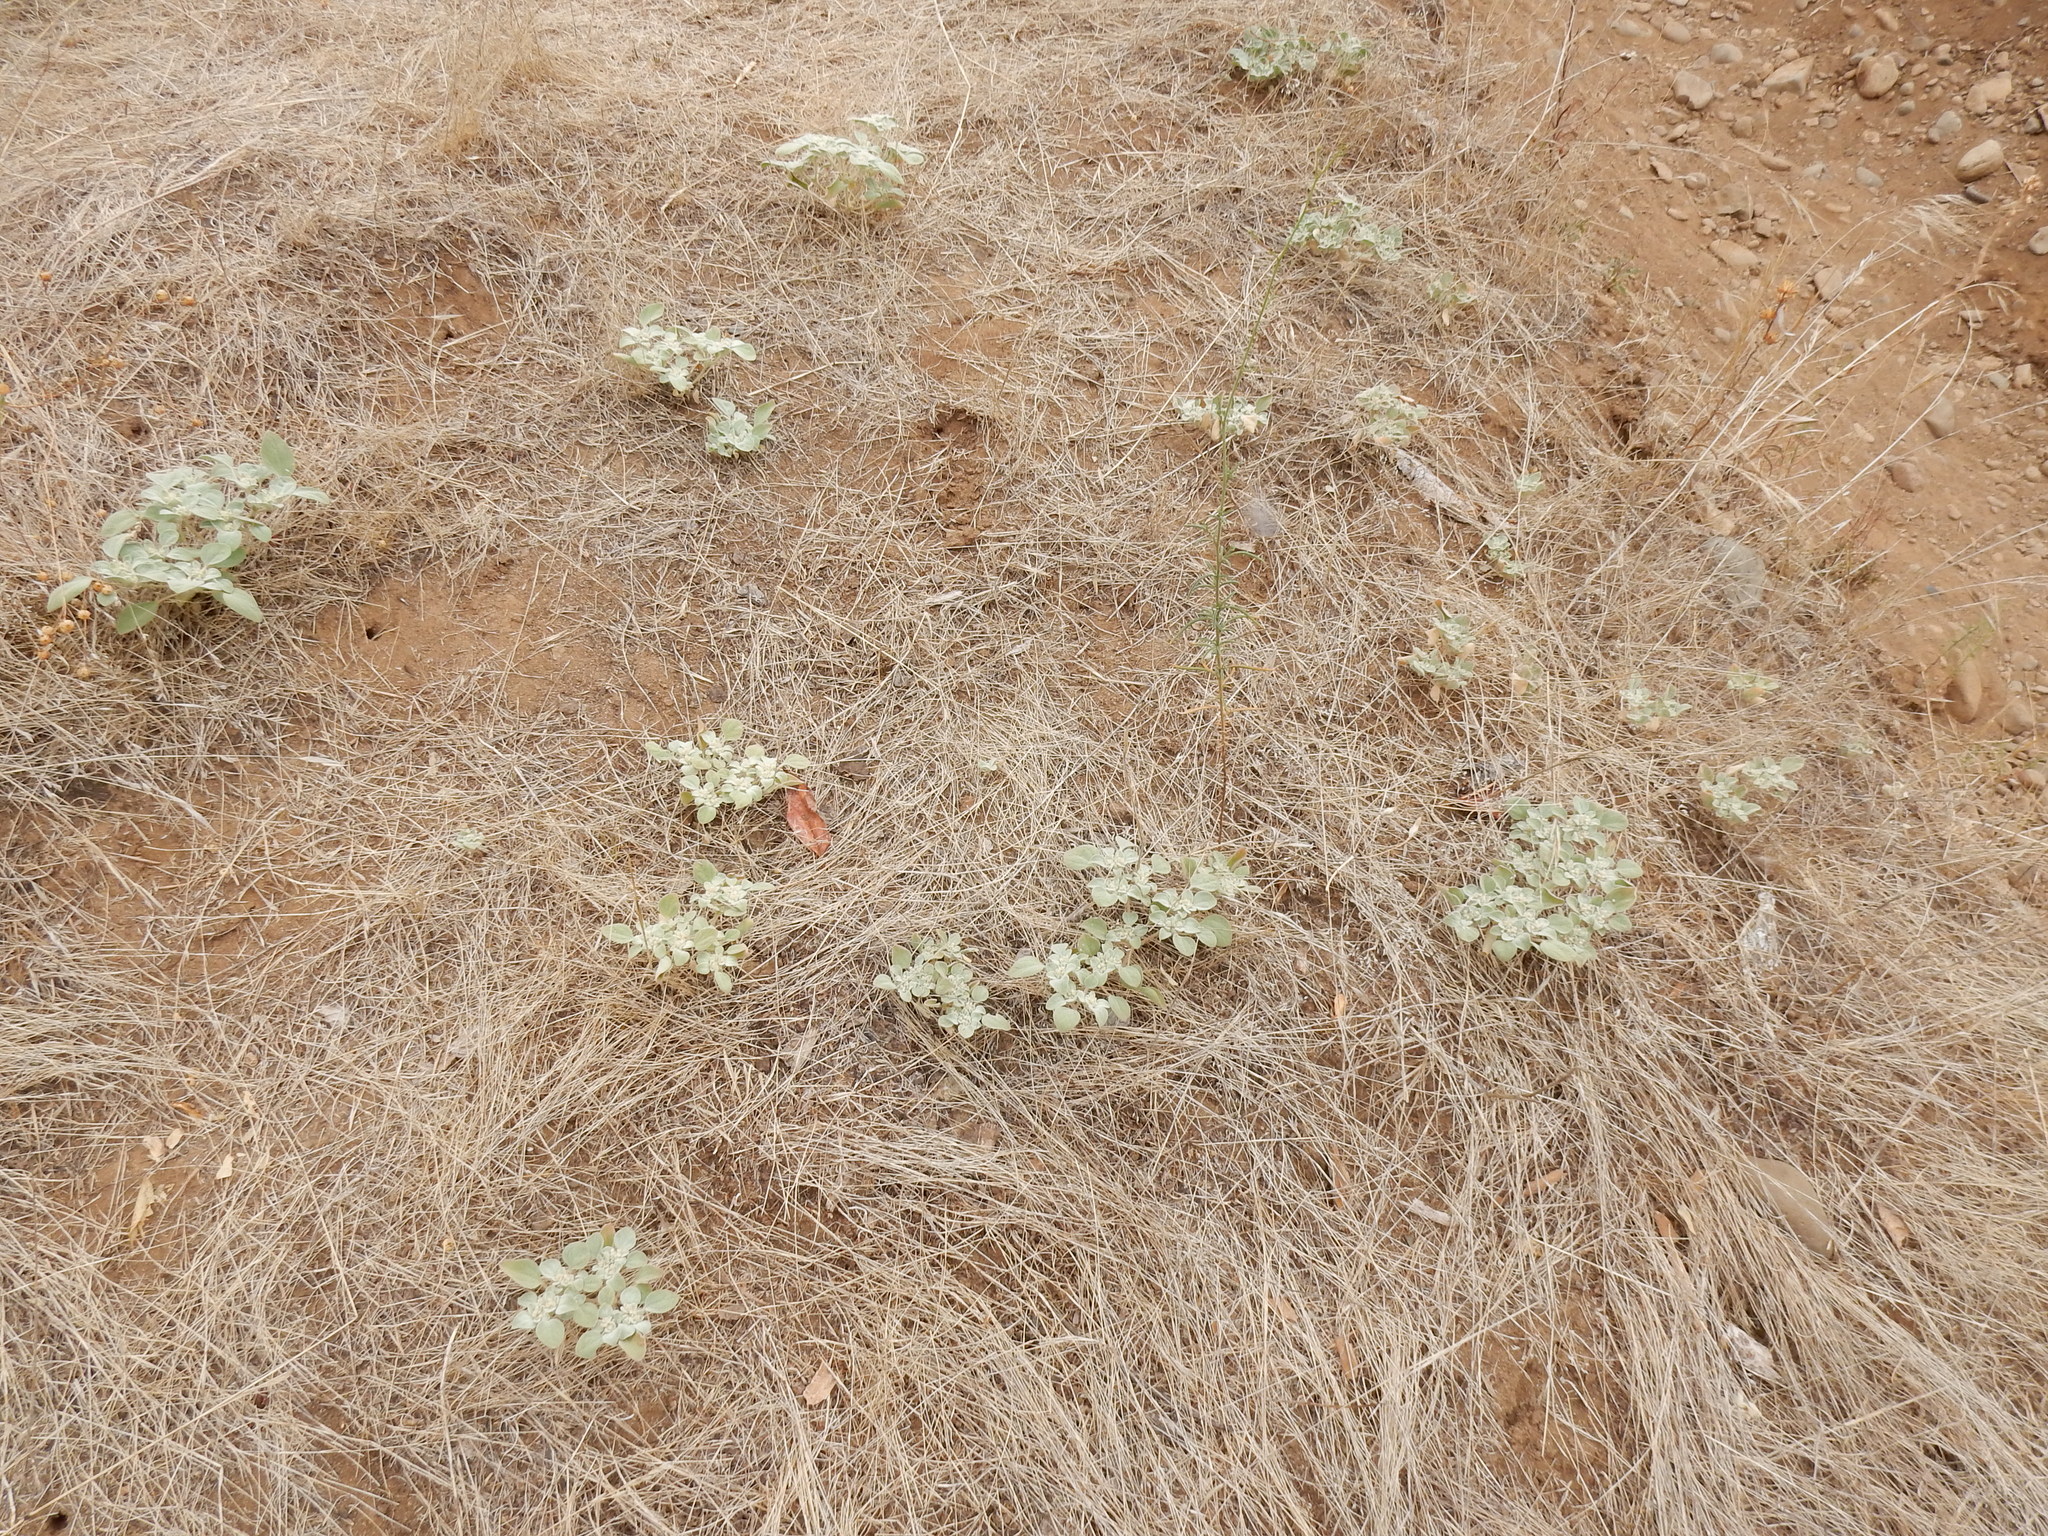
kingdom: Plantae
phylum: Tracheophyta
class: Magnoliopsida
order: Malpighiales
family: Euphorbiaceae
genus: Croton
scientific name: Croton setiger
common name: Dove weed
